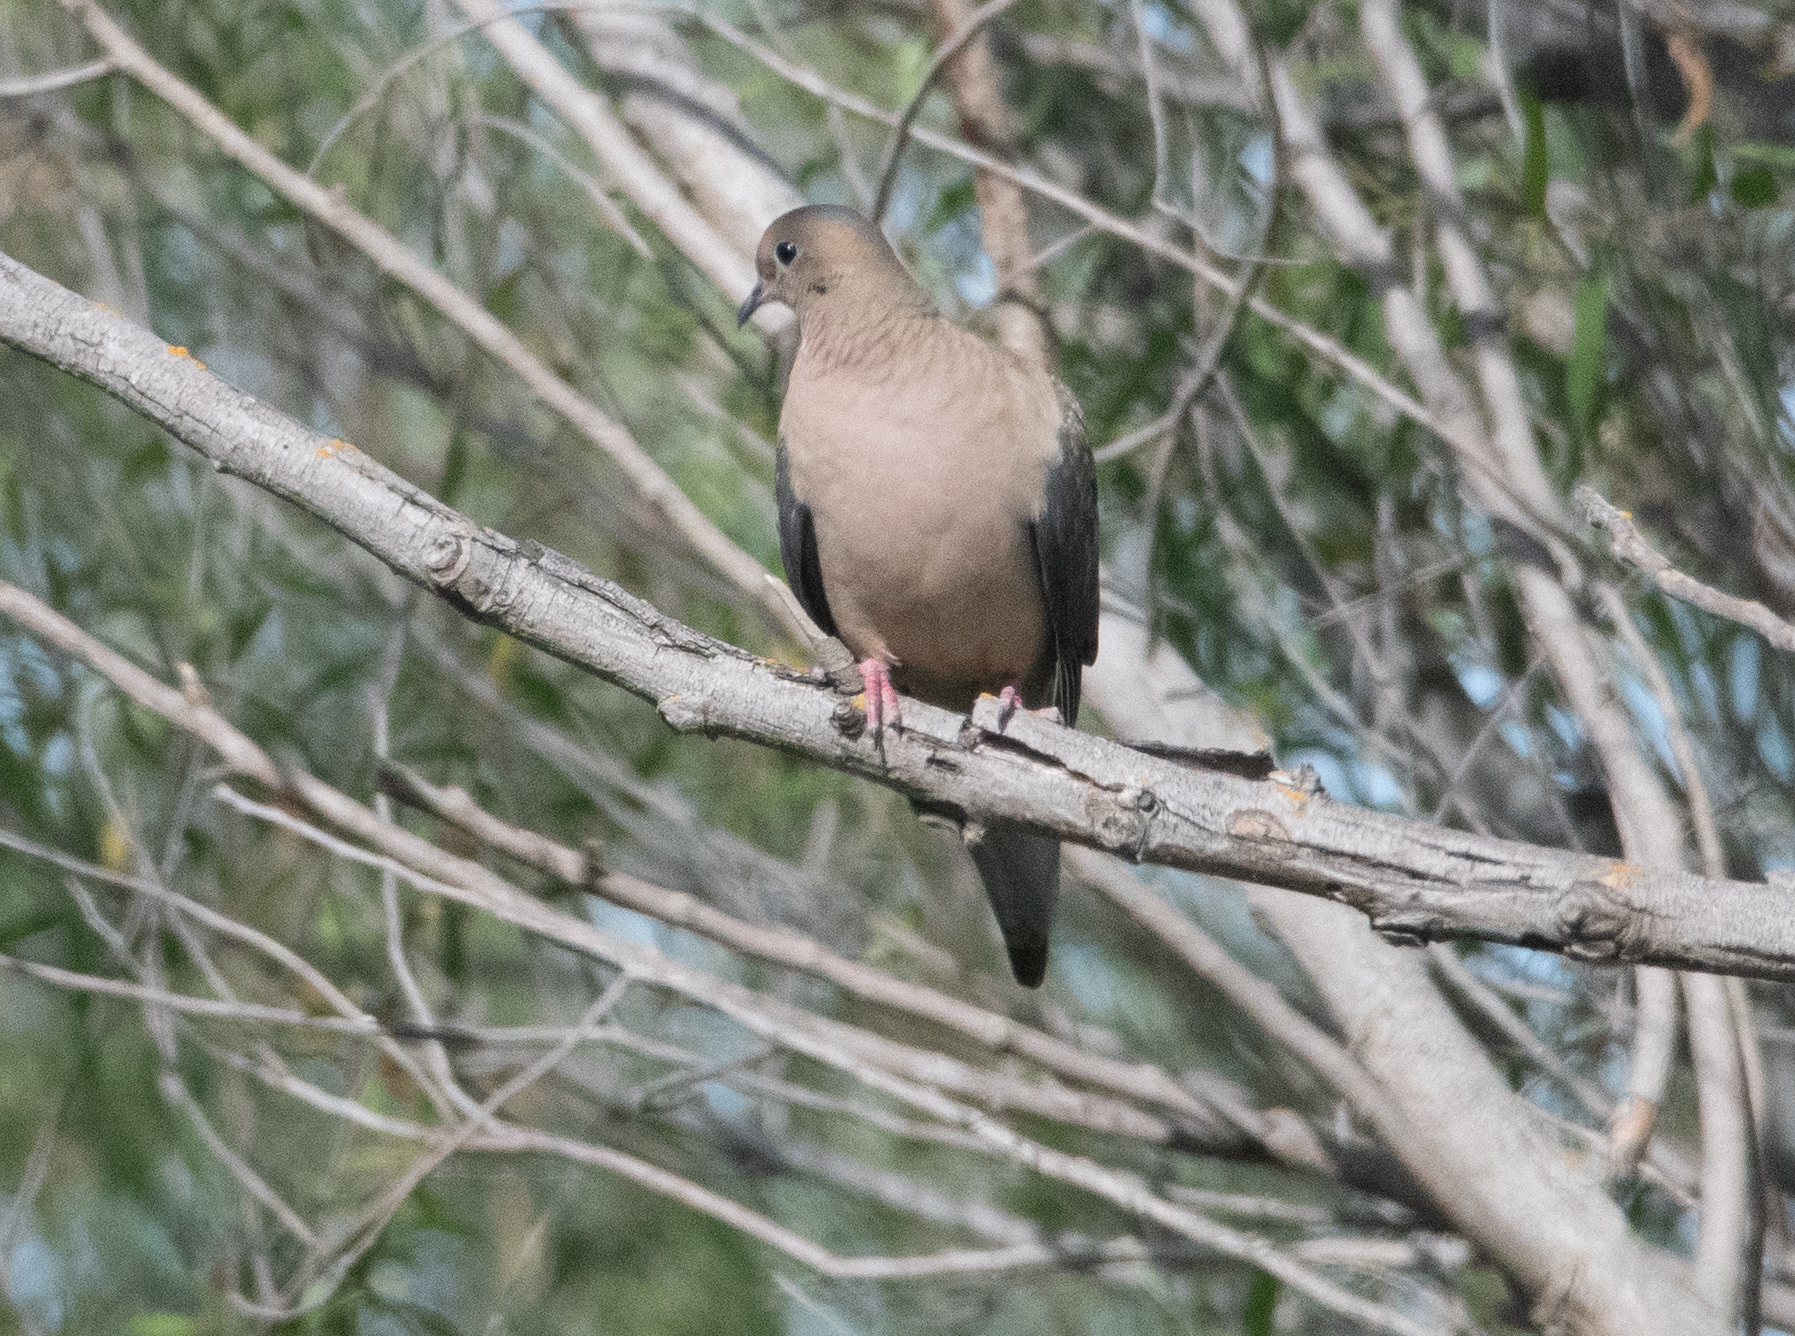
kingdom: Animalia
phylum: Chordata
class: Aves
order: Columbiformes
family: Columbidae
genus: Zenaida
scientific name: Zenaida macroura
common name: Mourning dove
